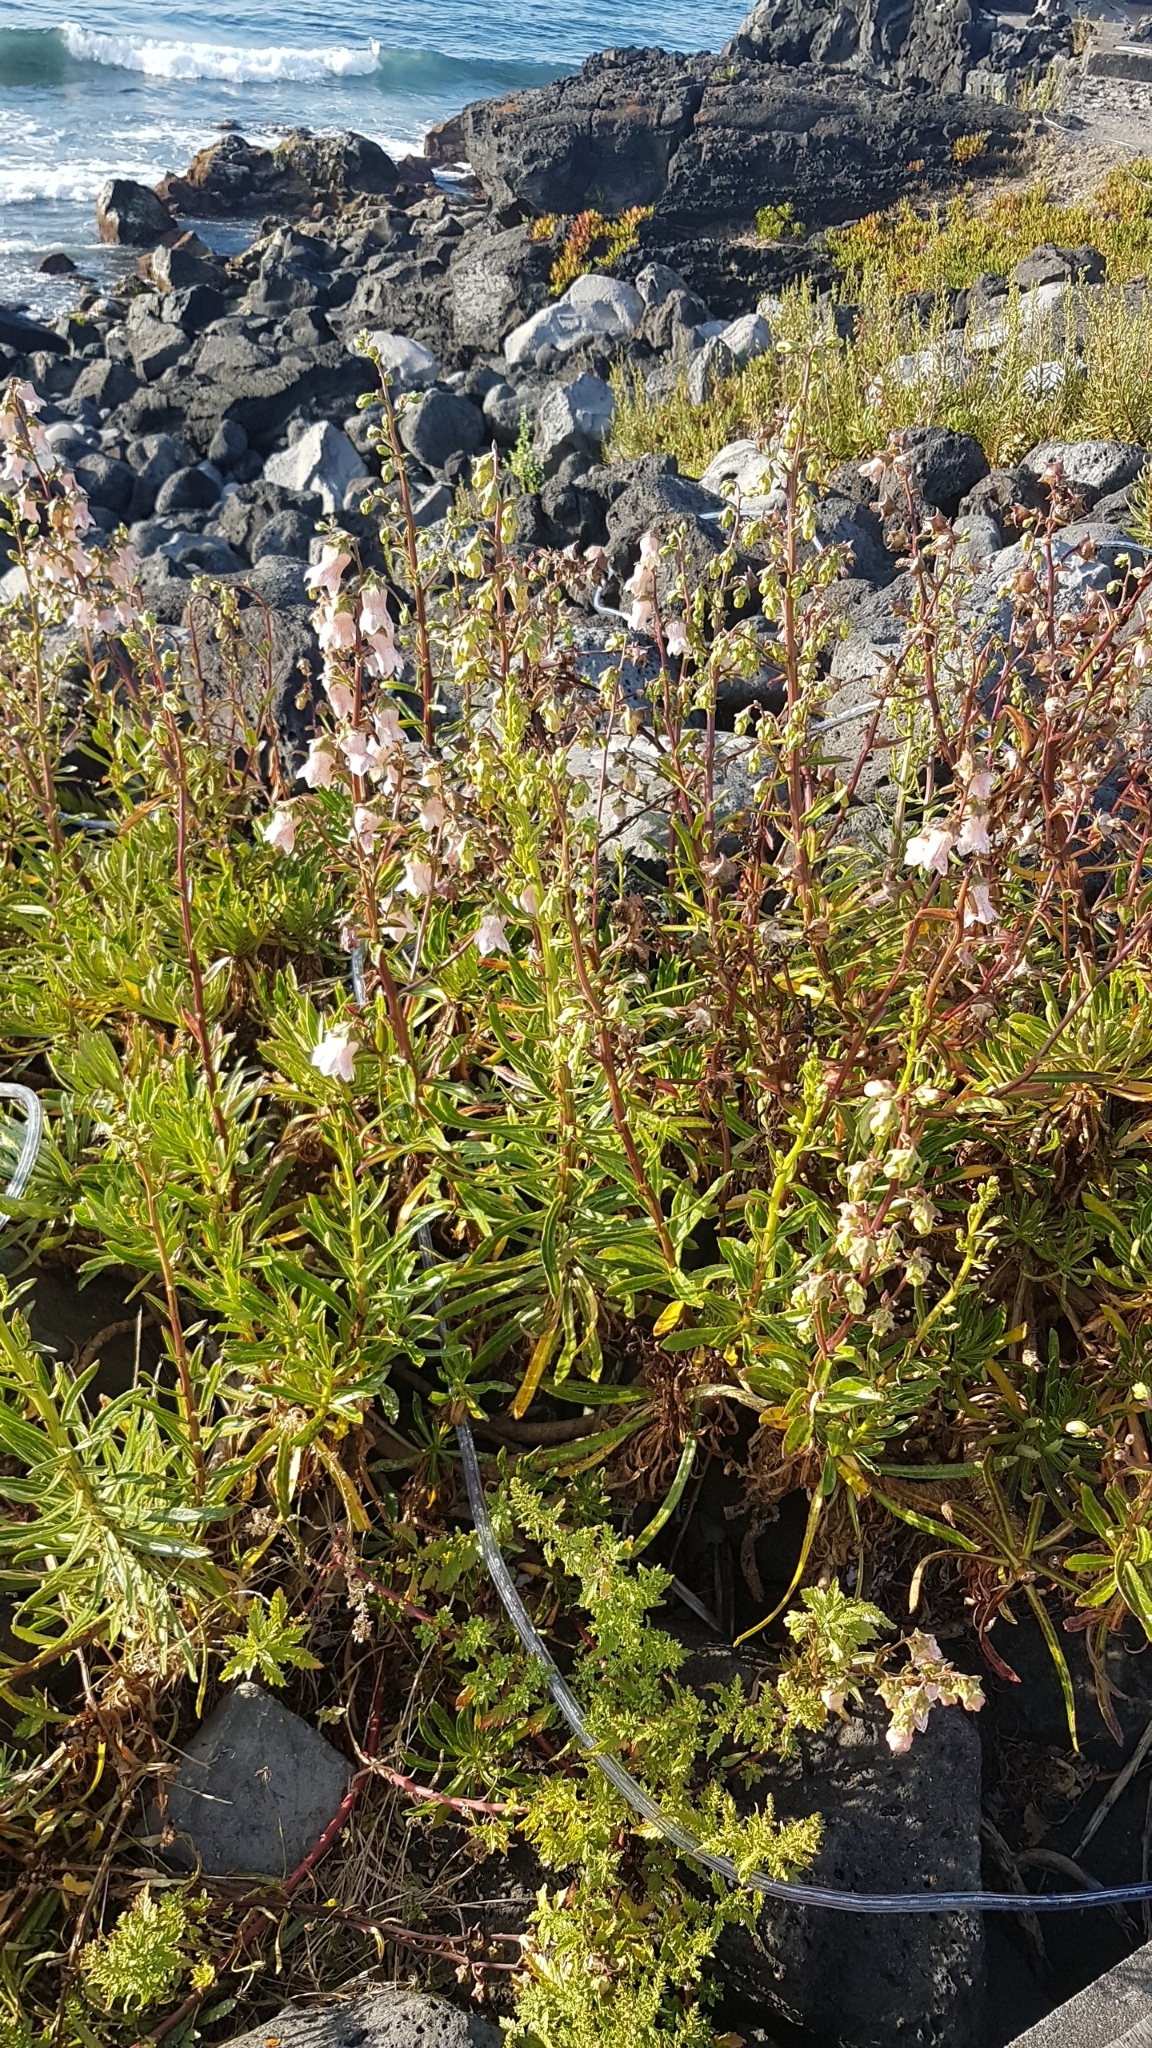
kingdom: Plantae
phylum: Tracheophyta
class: Magnoliopsida
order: Asterales
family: Campanulaceae
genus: Campanula
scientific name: Campanula vidalii
